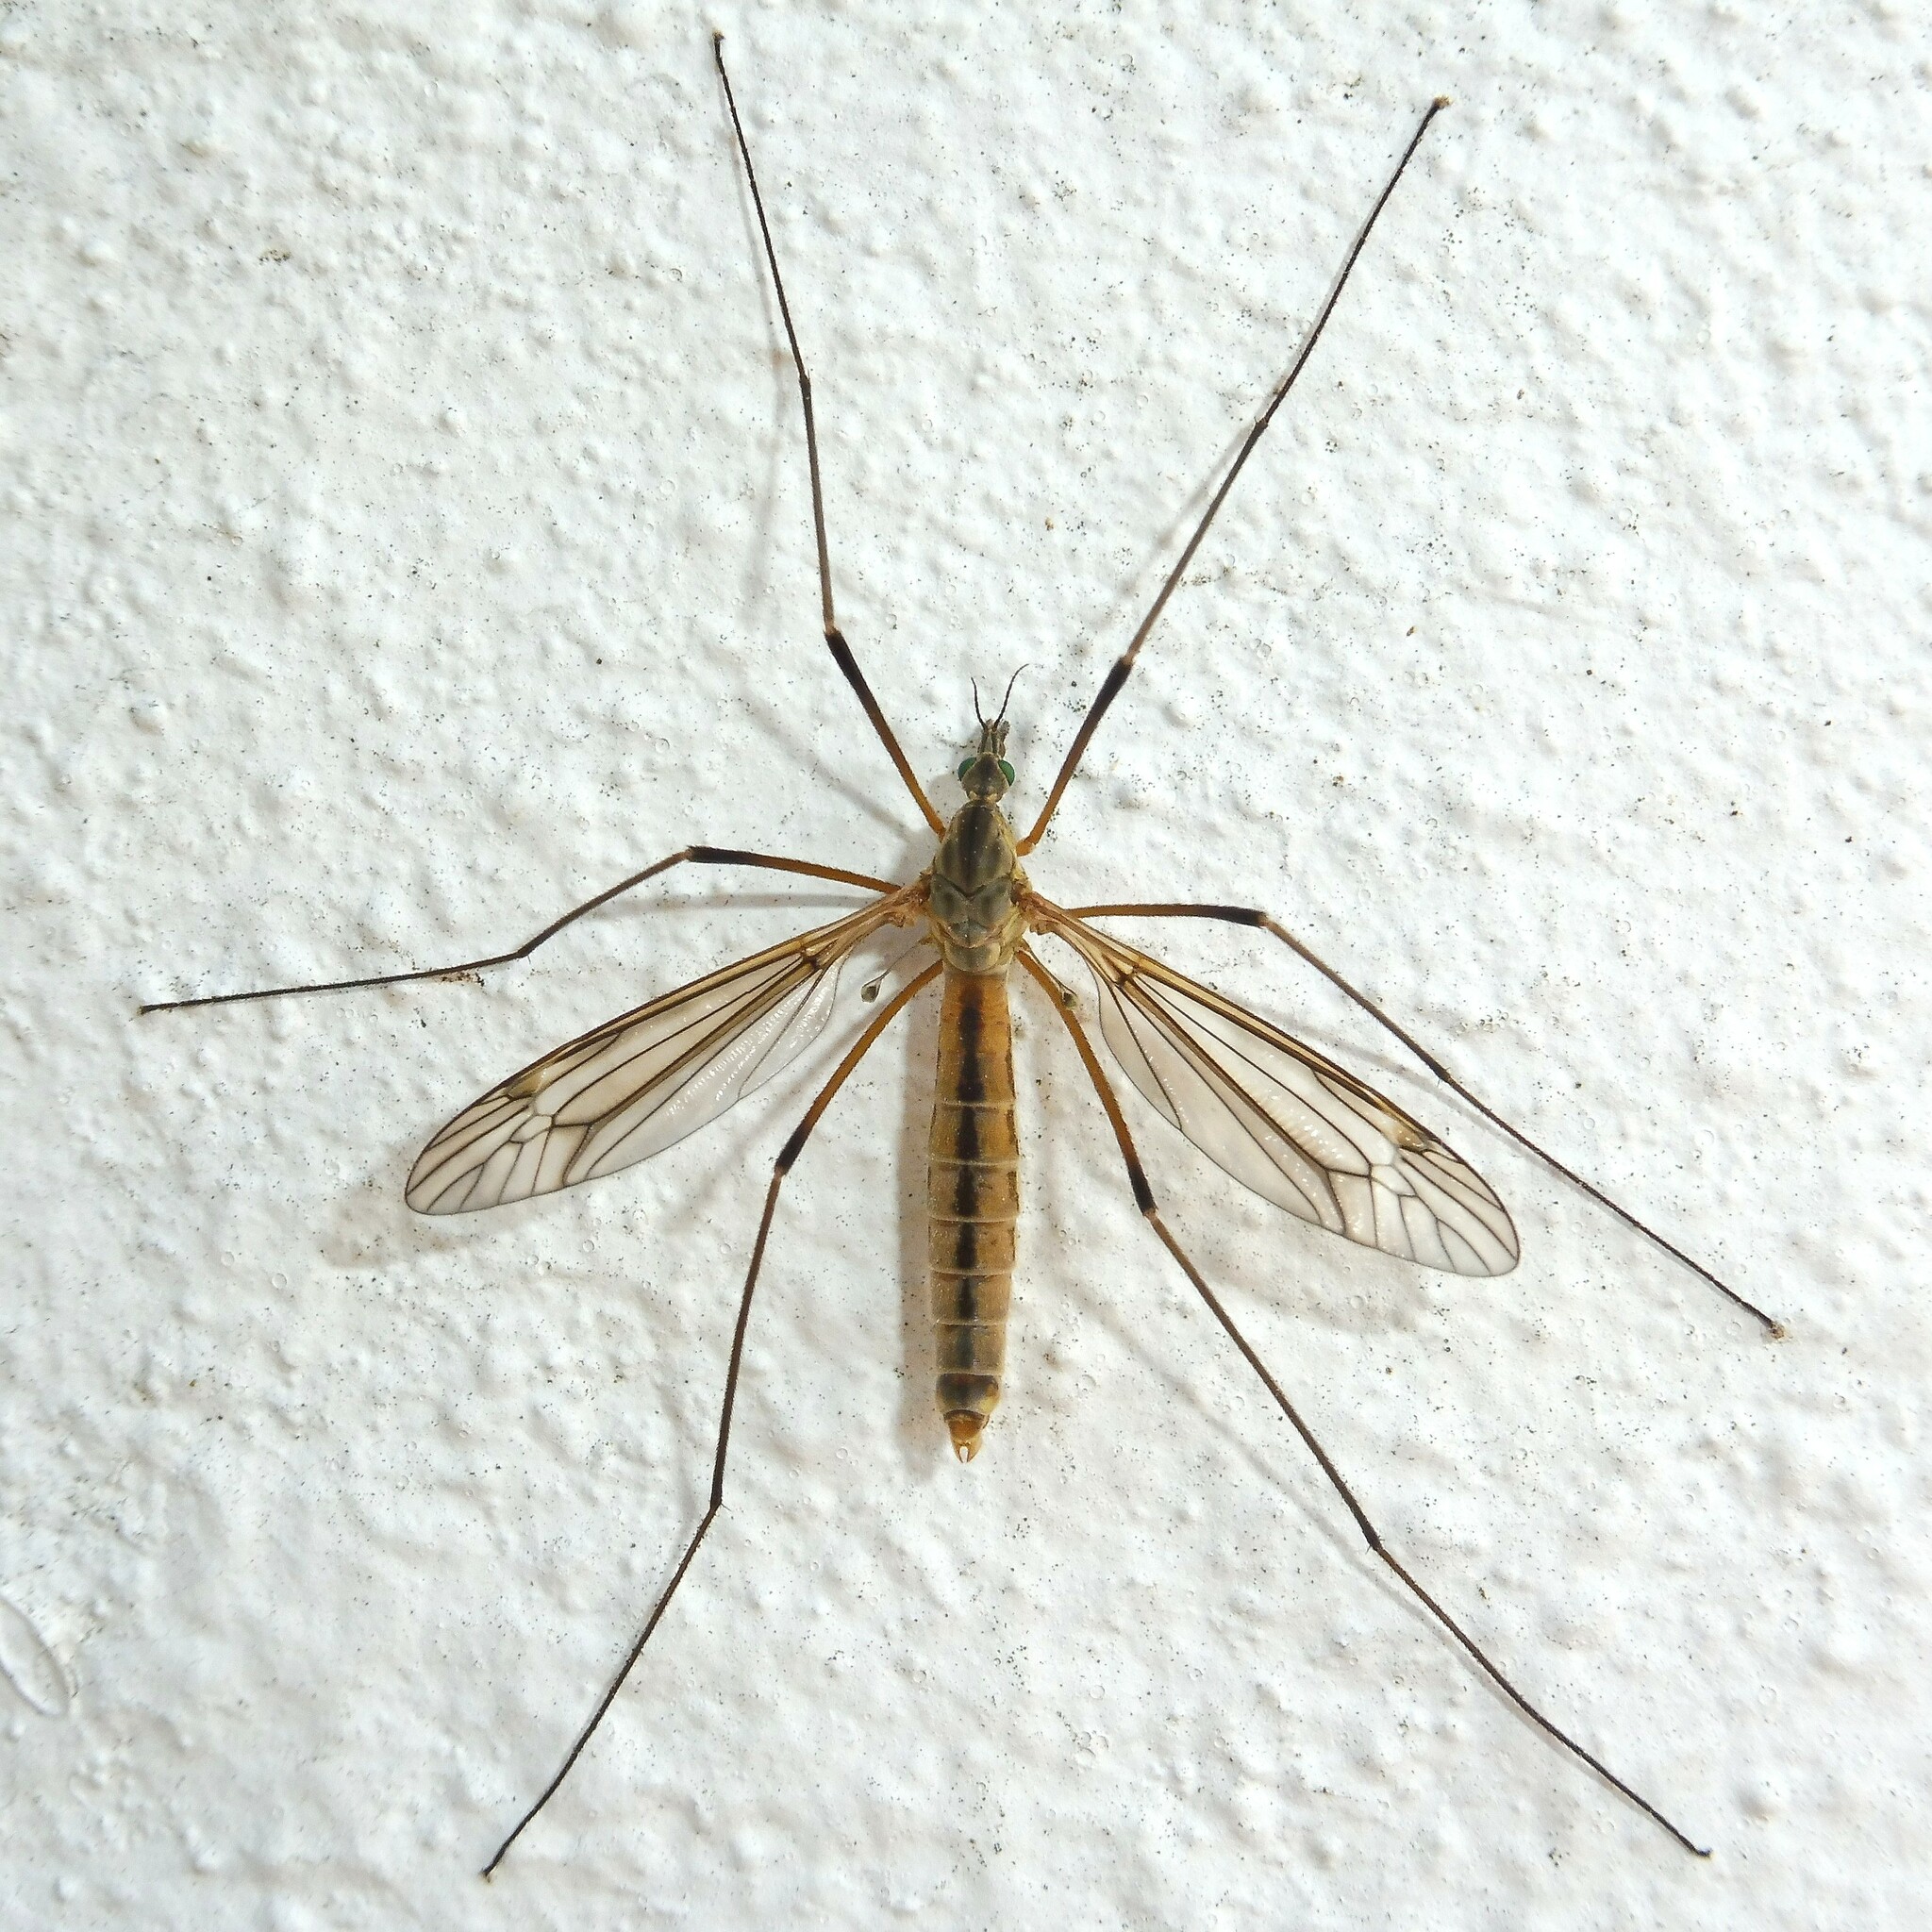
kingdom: Animalia
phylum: Arthropoda
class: Insecta
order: Diptera
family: Tipulidae
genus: Tipula
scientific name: Tipula vernalis
